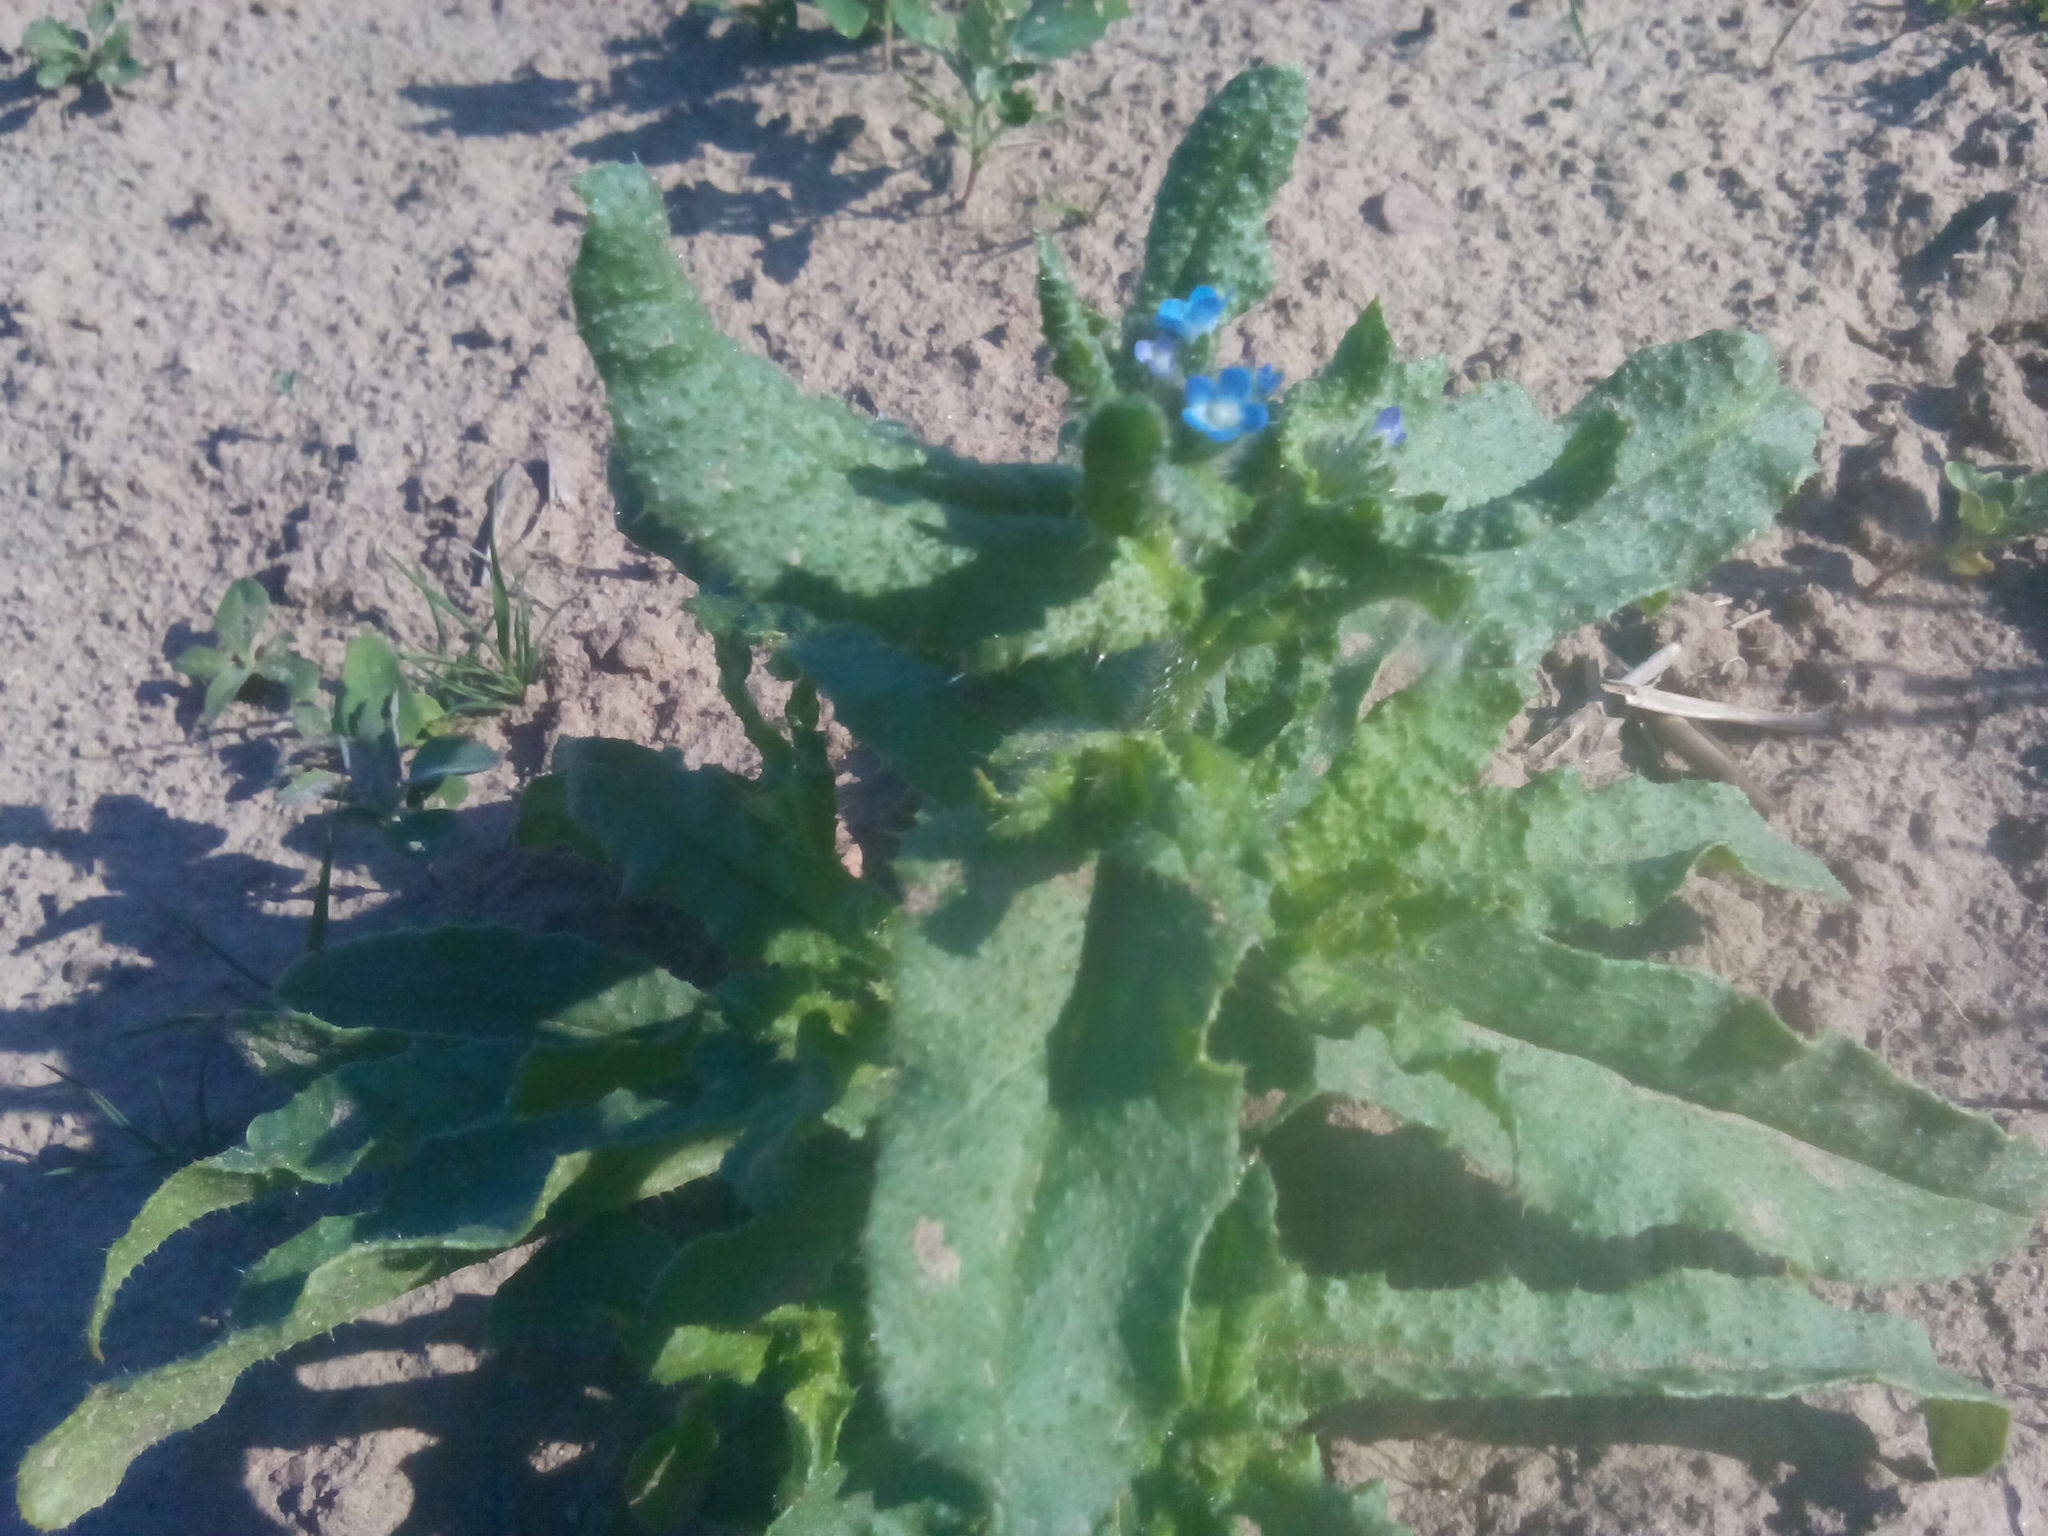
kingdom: Plantae
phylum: Tracheophyta
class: Magnoliopsida
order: Boraginales
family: Boraginaceae
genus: Lycopsis
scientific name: Lycopsis arvensis
